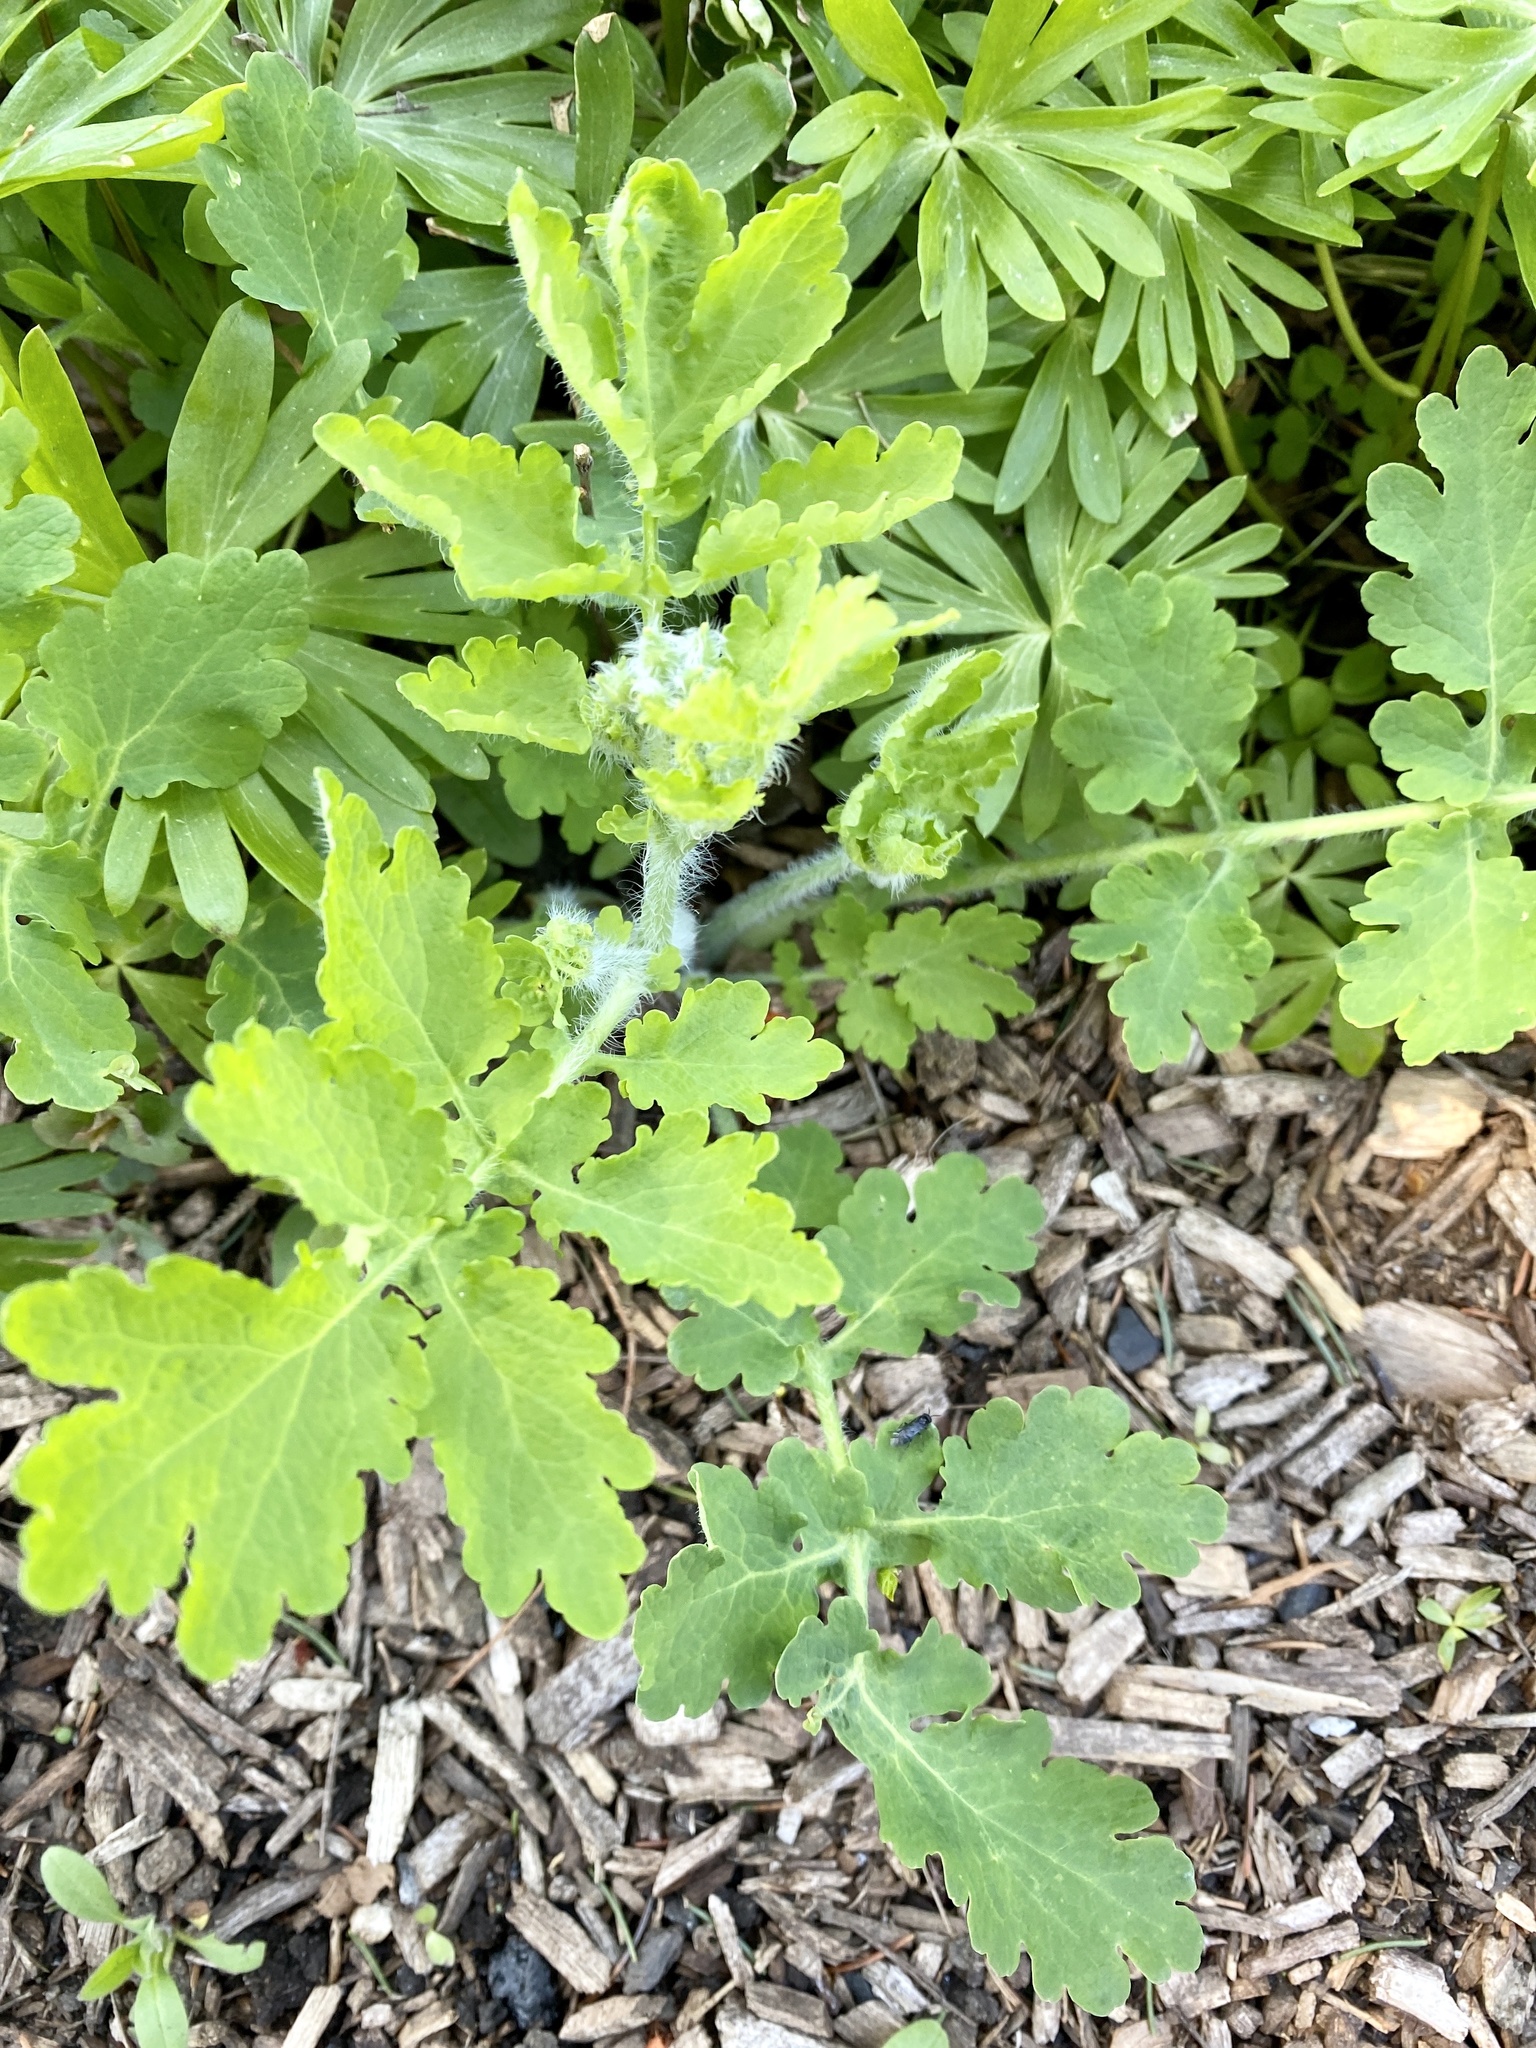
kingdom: Plantae
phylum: Tracheophyta
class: Magnoliopsida
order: Ranunculales
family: Papaveraceae
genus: Chelidonium
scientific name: Chelidonium majus
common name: Greater celandine
